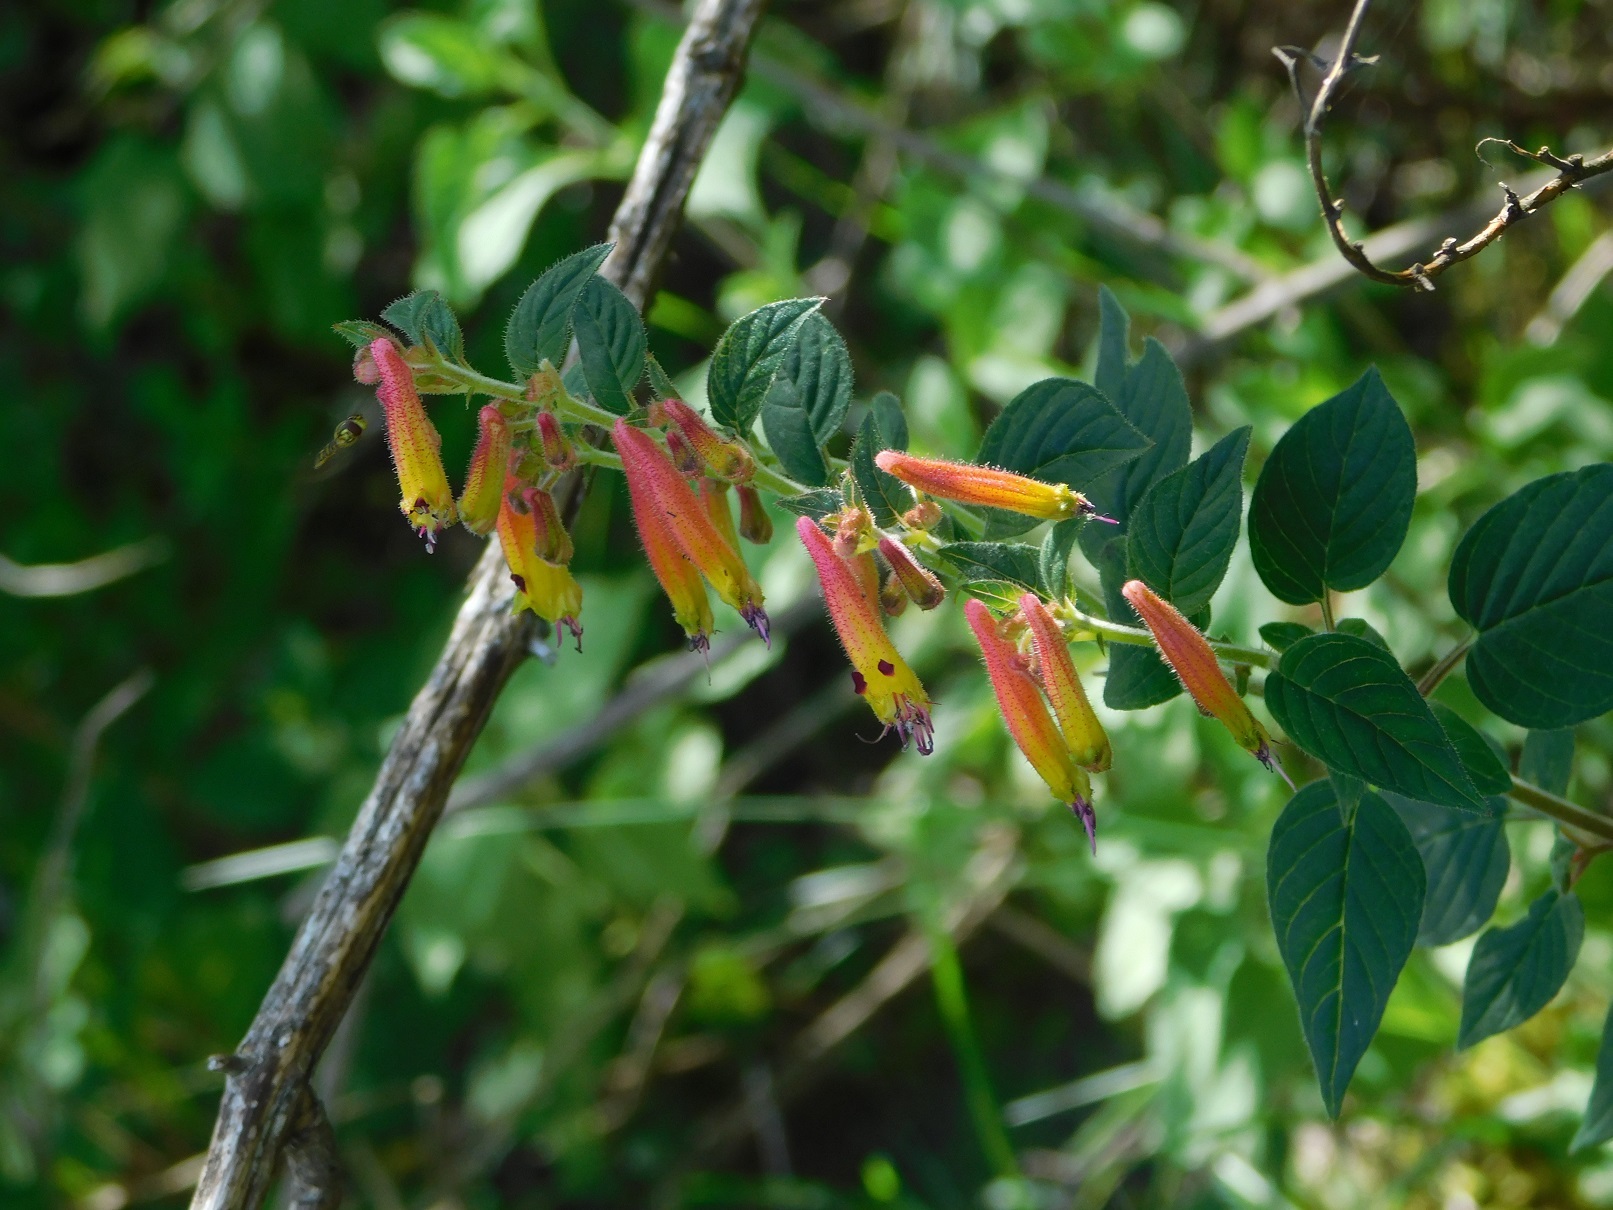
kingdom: Plantae
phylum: Tracheophyta
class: Magnoliopsida
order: Myrtales
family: Lythraceae
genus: Cuphea
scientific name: Cuphea cyanea
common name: Black-eyed cuphea
